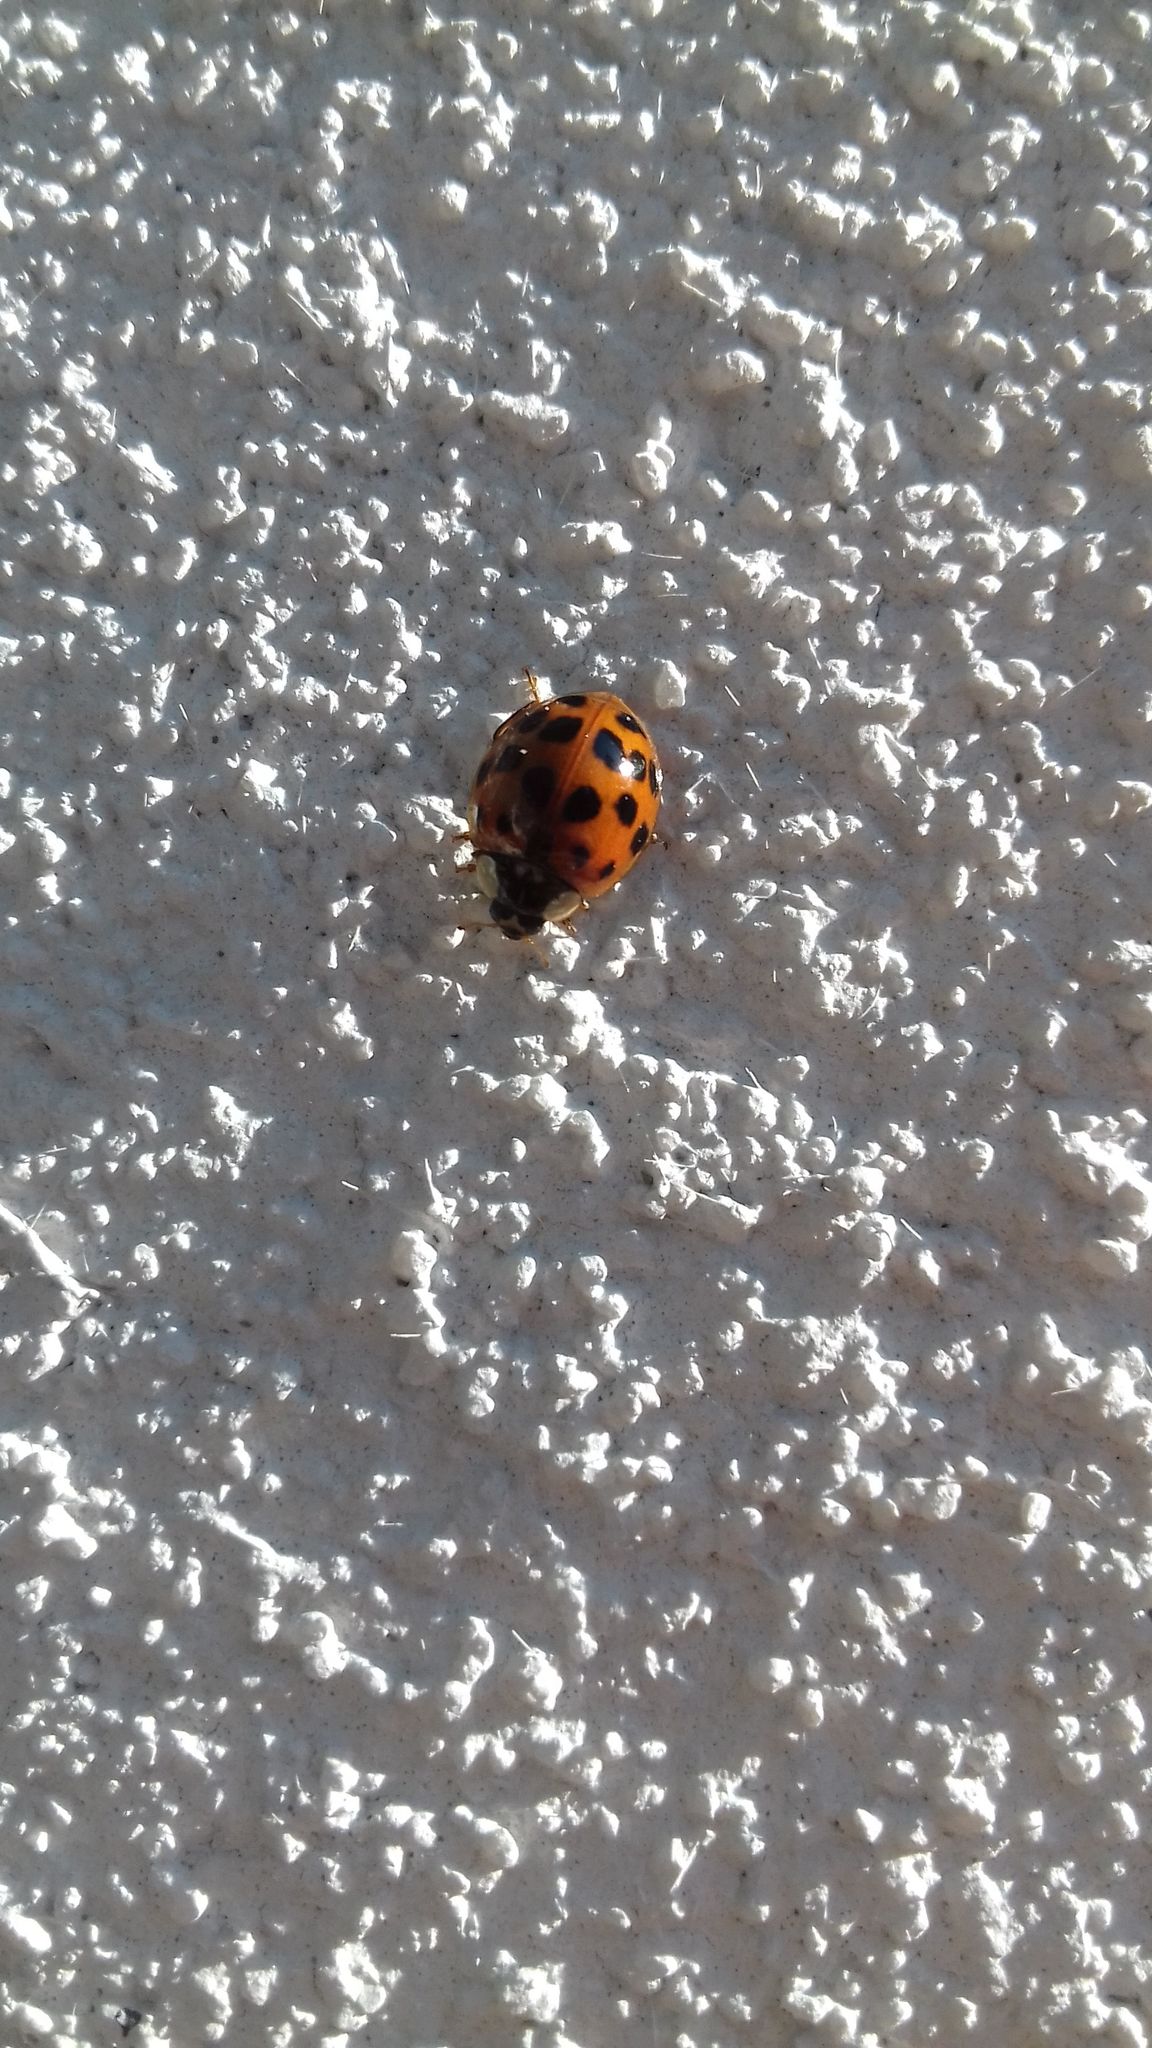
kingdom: Animalia
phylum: Arthropoda
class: Insecta
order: Coleoptera
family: Coccinellidae
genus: Harmonia
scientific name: Harmonia axyridis
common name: Harlequin ladybird
